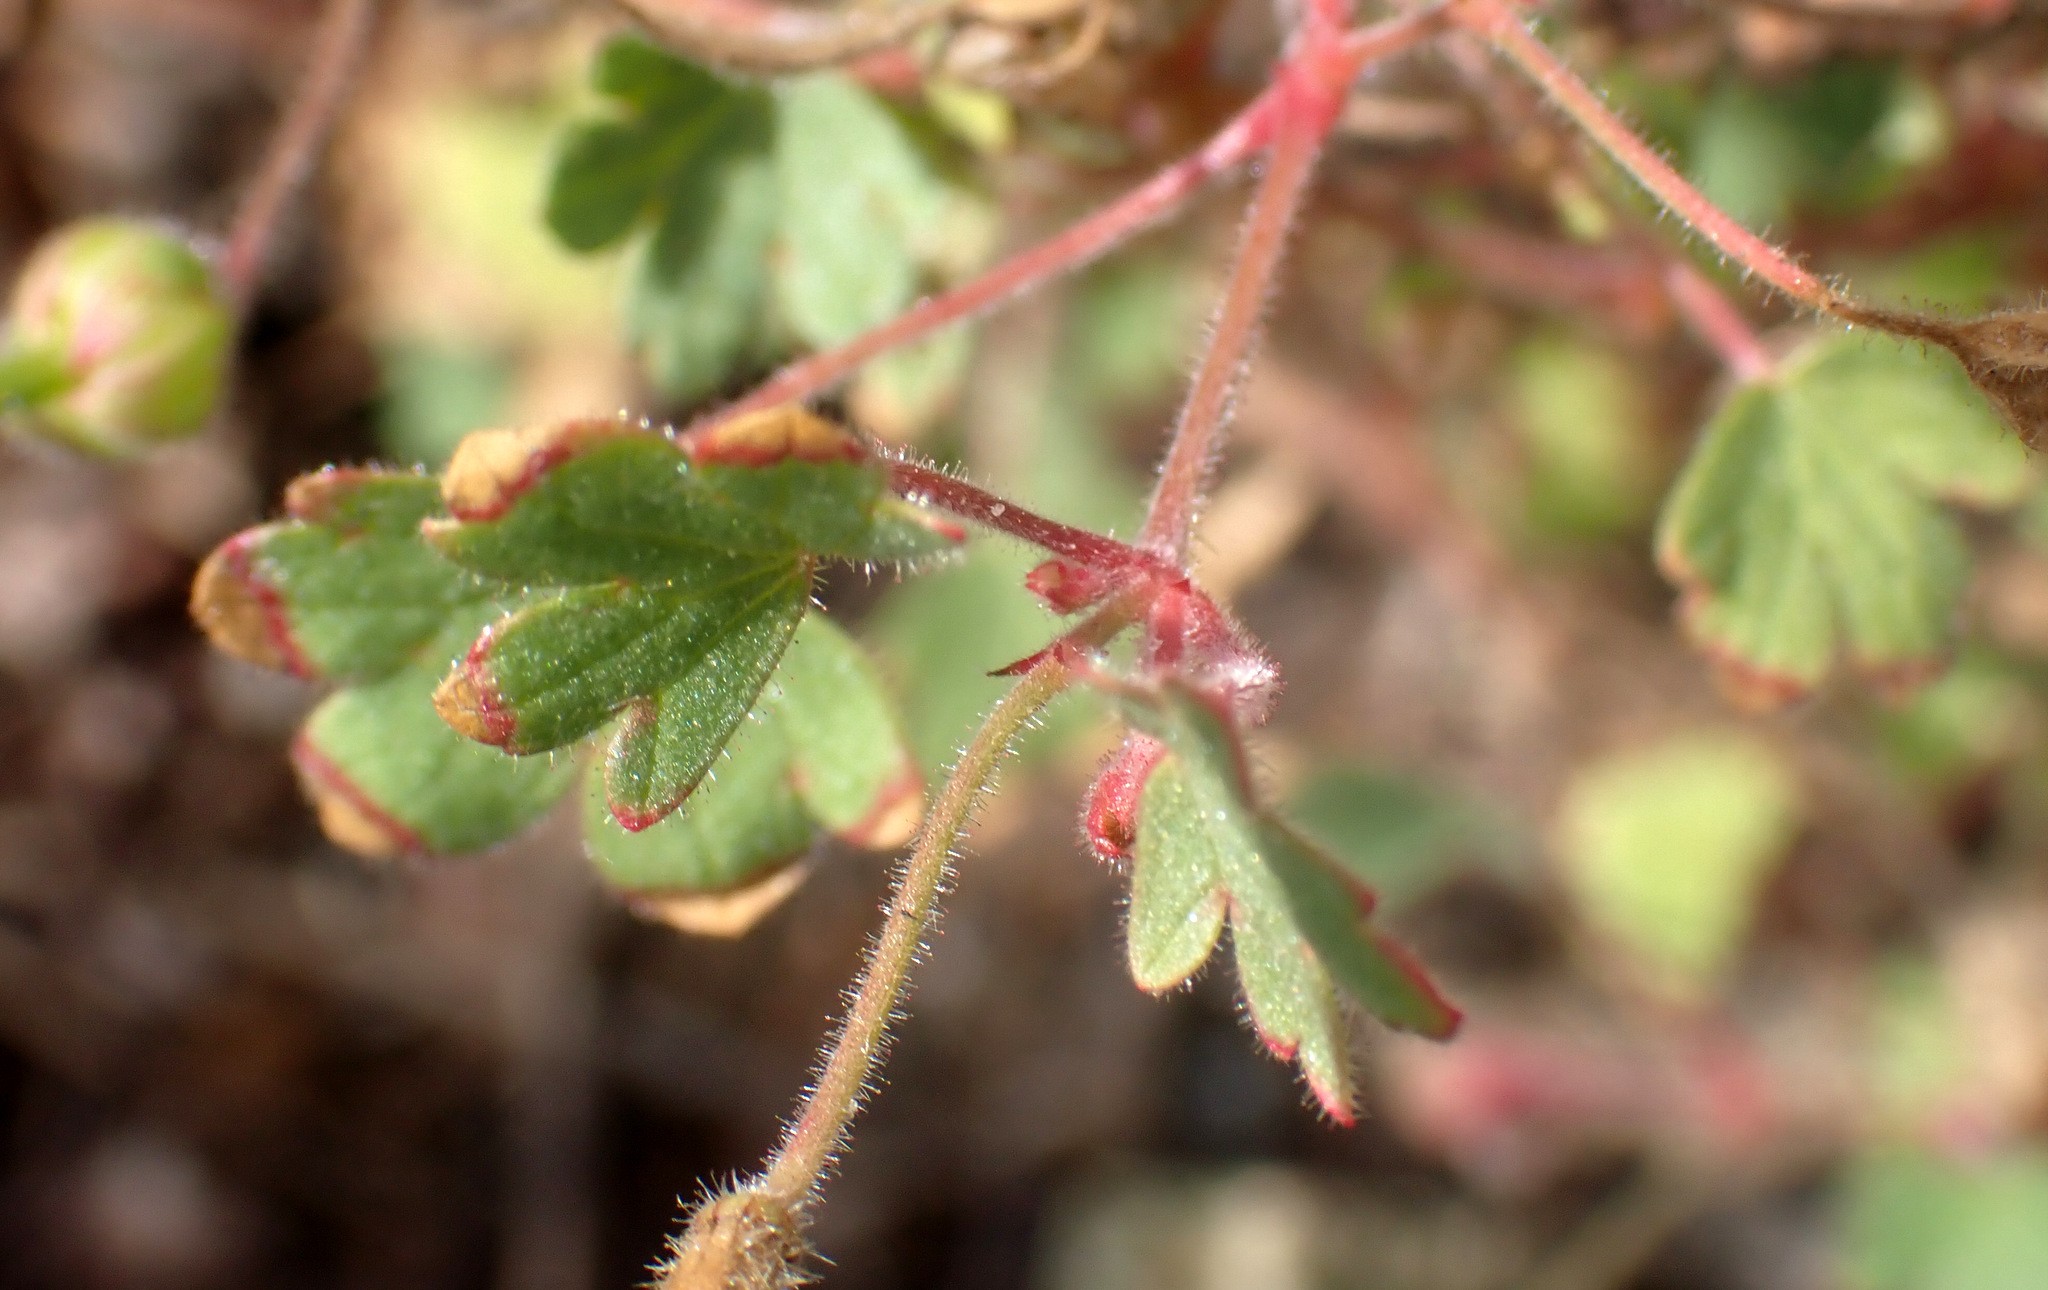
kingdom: Plantae
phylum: Tracheophyta
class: Magnoliopsida
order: Geraniales
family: Geraniaceae
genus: Geranium
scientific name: Geranium rotundifolium
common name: Round-leaved crane's-bill
